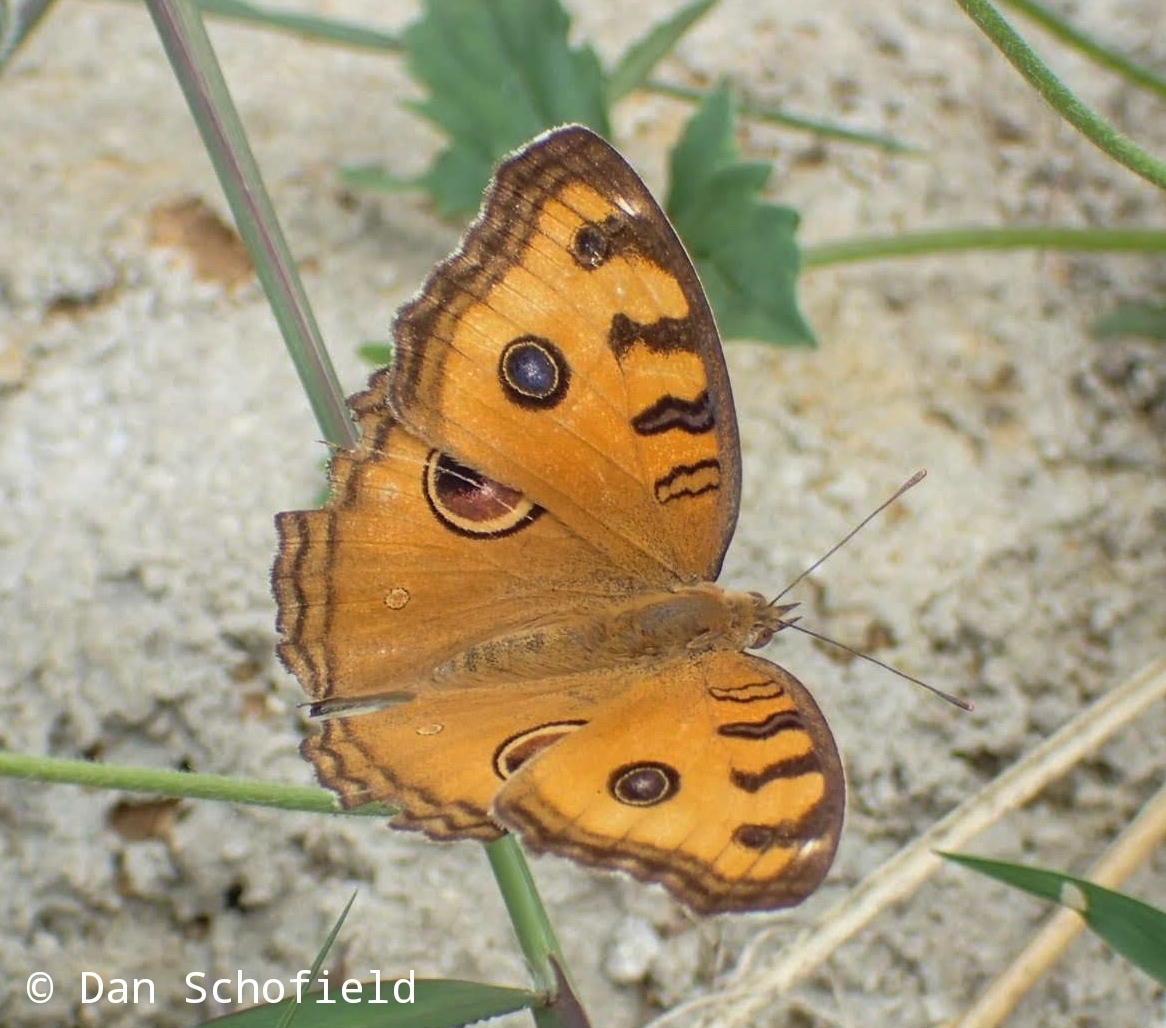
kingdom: Animalia
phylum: Arthropoda
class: Insecta
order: Lepidoptera
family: Nymphalidae
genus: Junonia
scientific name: Junonia almana
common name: Peacock pansy
